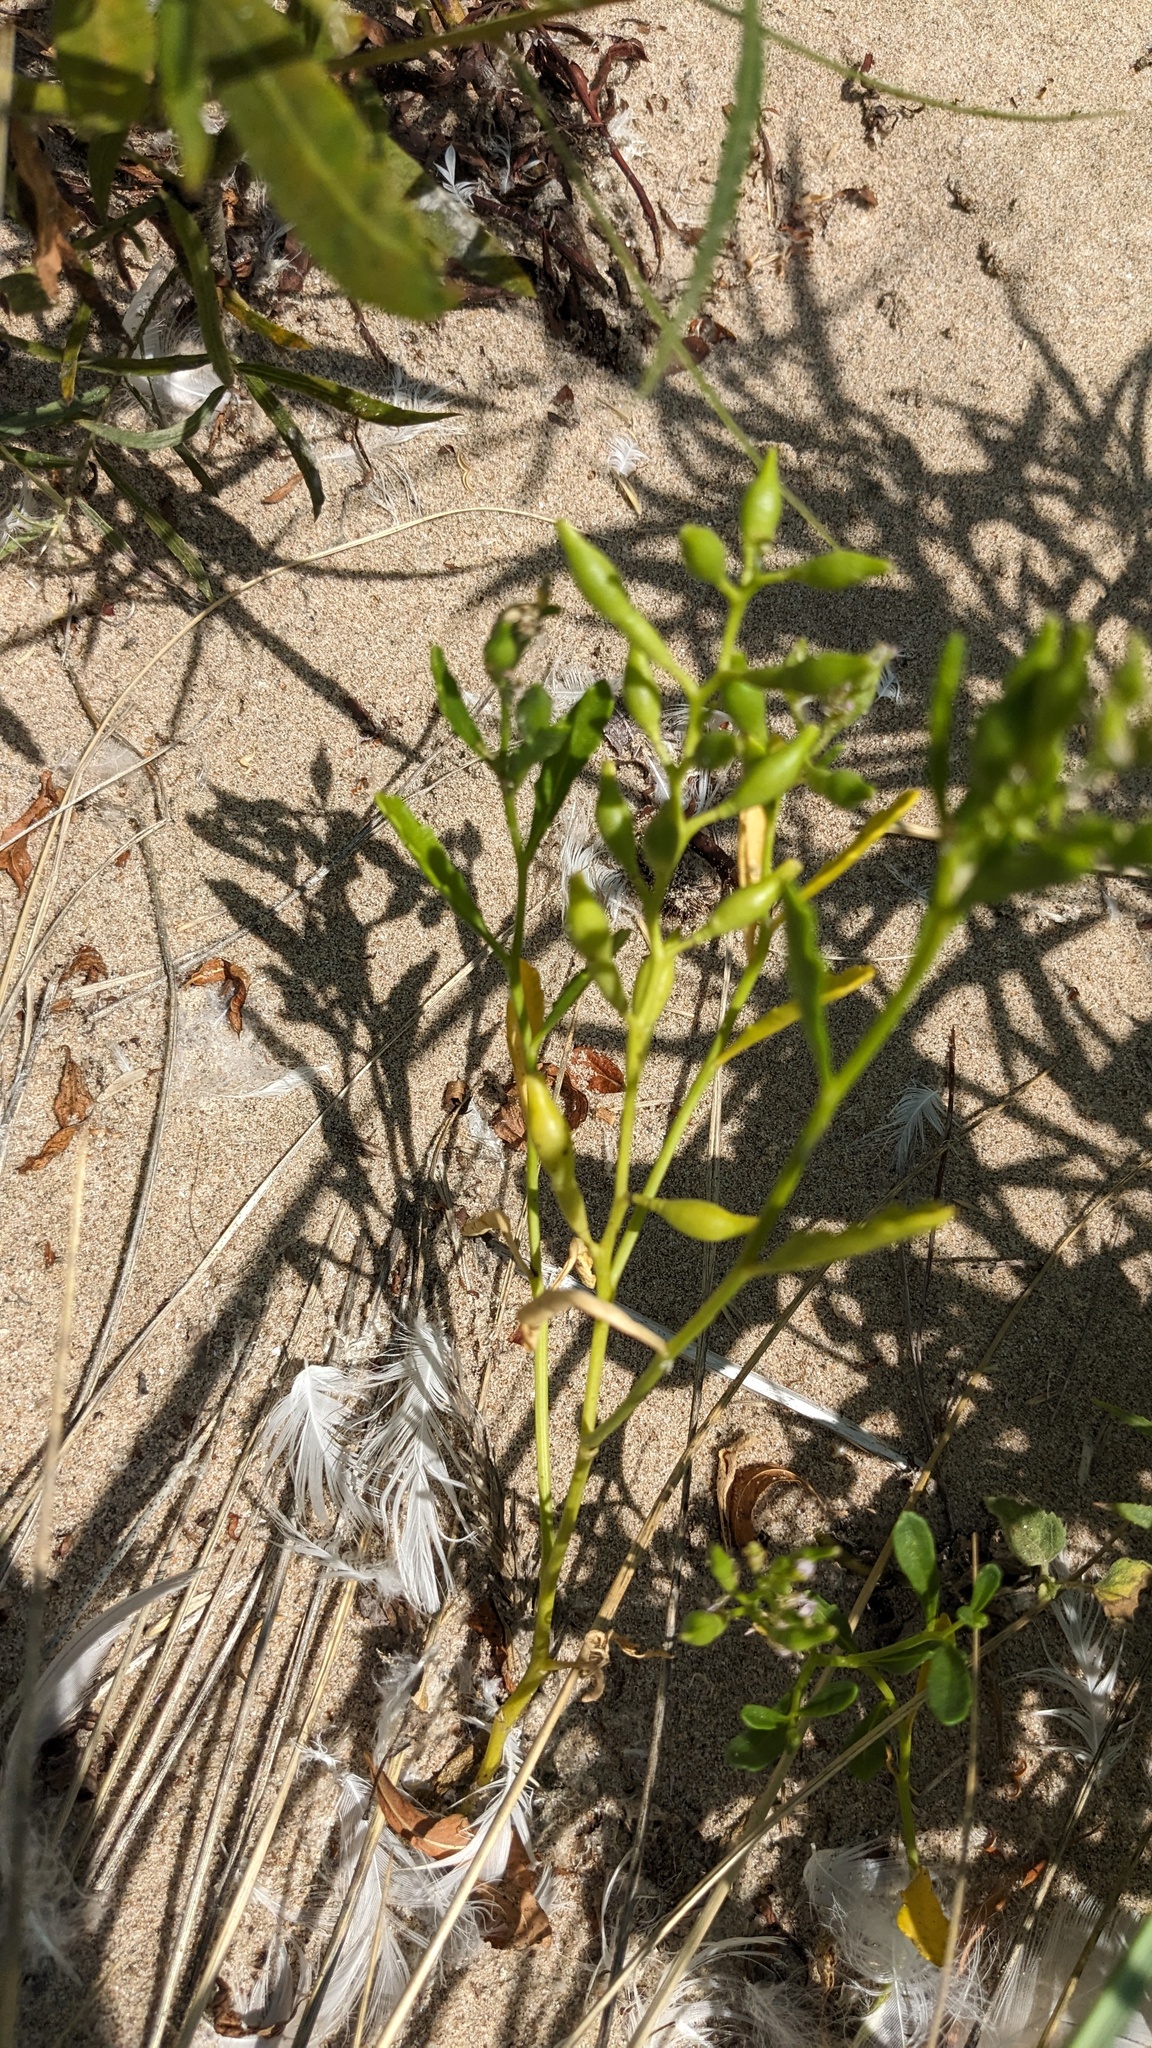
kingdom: Plantae
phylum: Tracheophyta
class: Magnoliopsida
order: Brassicales
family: Brassicaceae
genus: Cakile
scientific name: Cakile edentula
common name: American sea rocket
